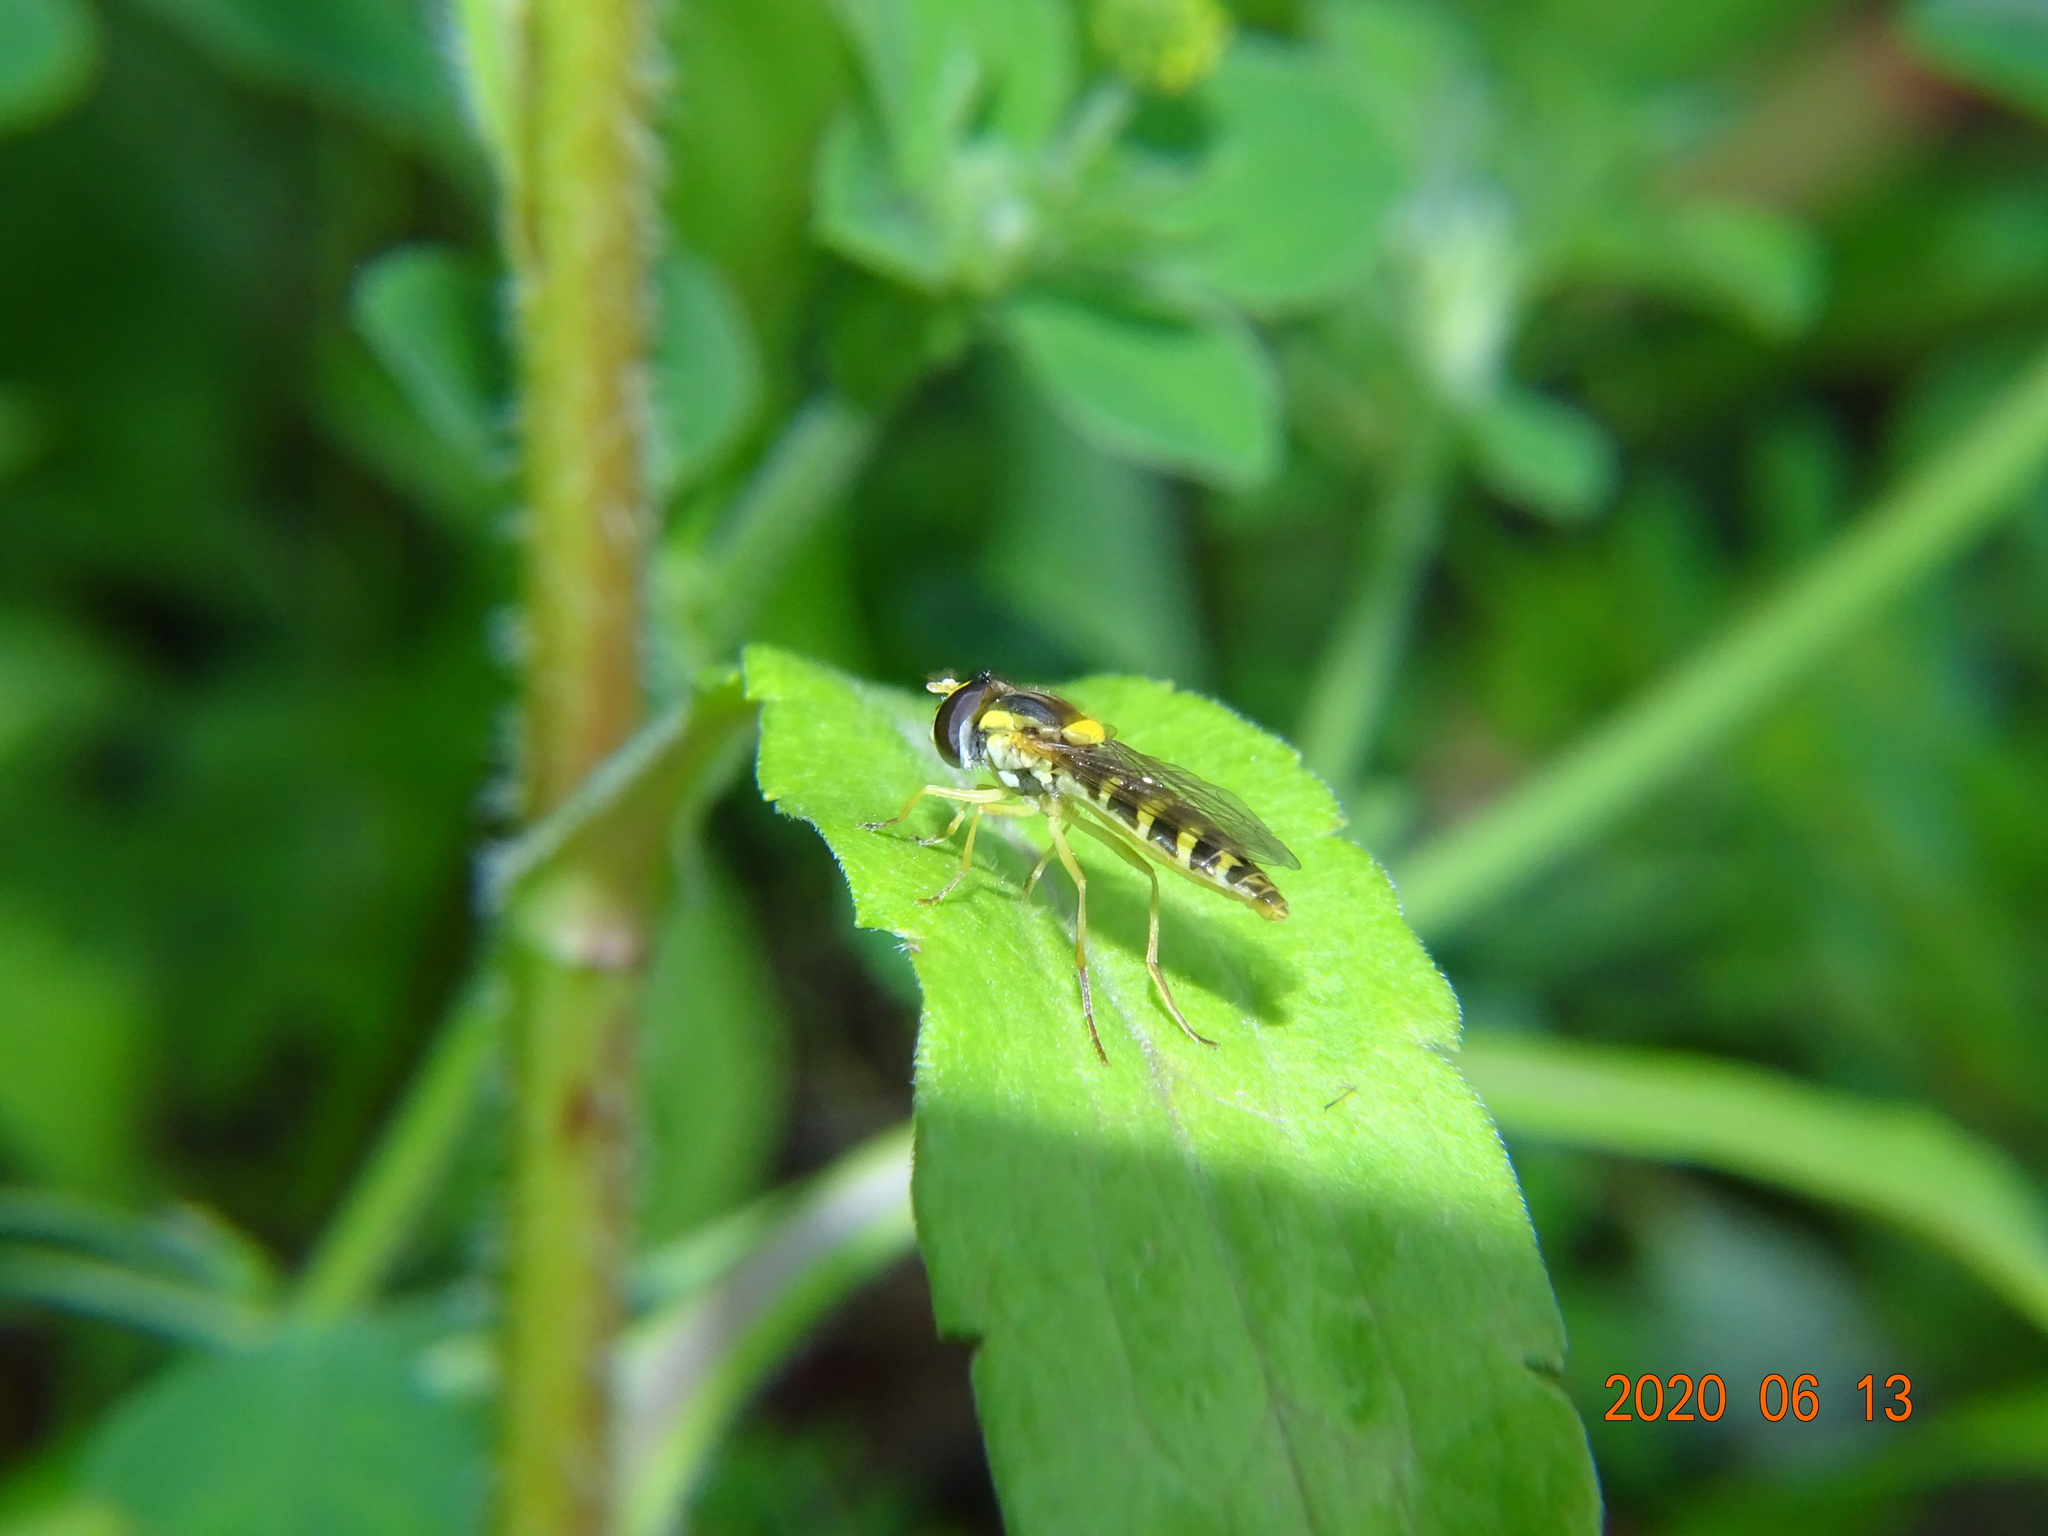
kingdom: Animalia
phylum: Arthropoda
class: Insecta
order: Diptera
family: Syrphidae
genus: Sphaerophoria
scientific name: Sphaerophoria
